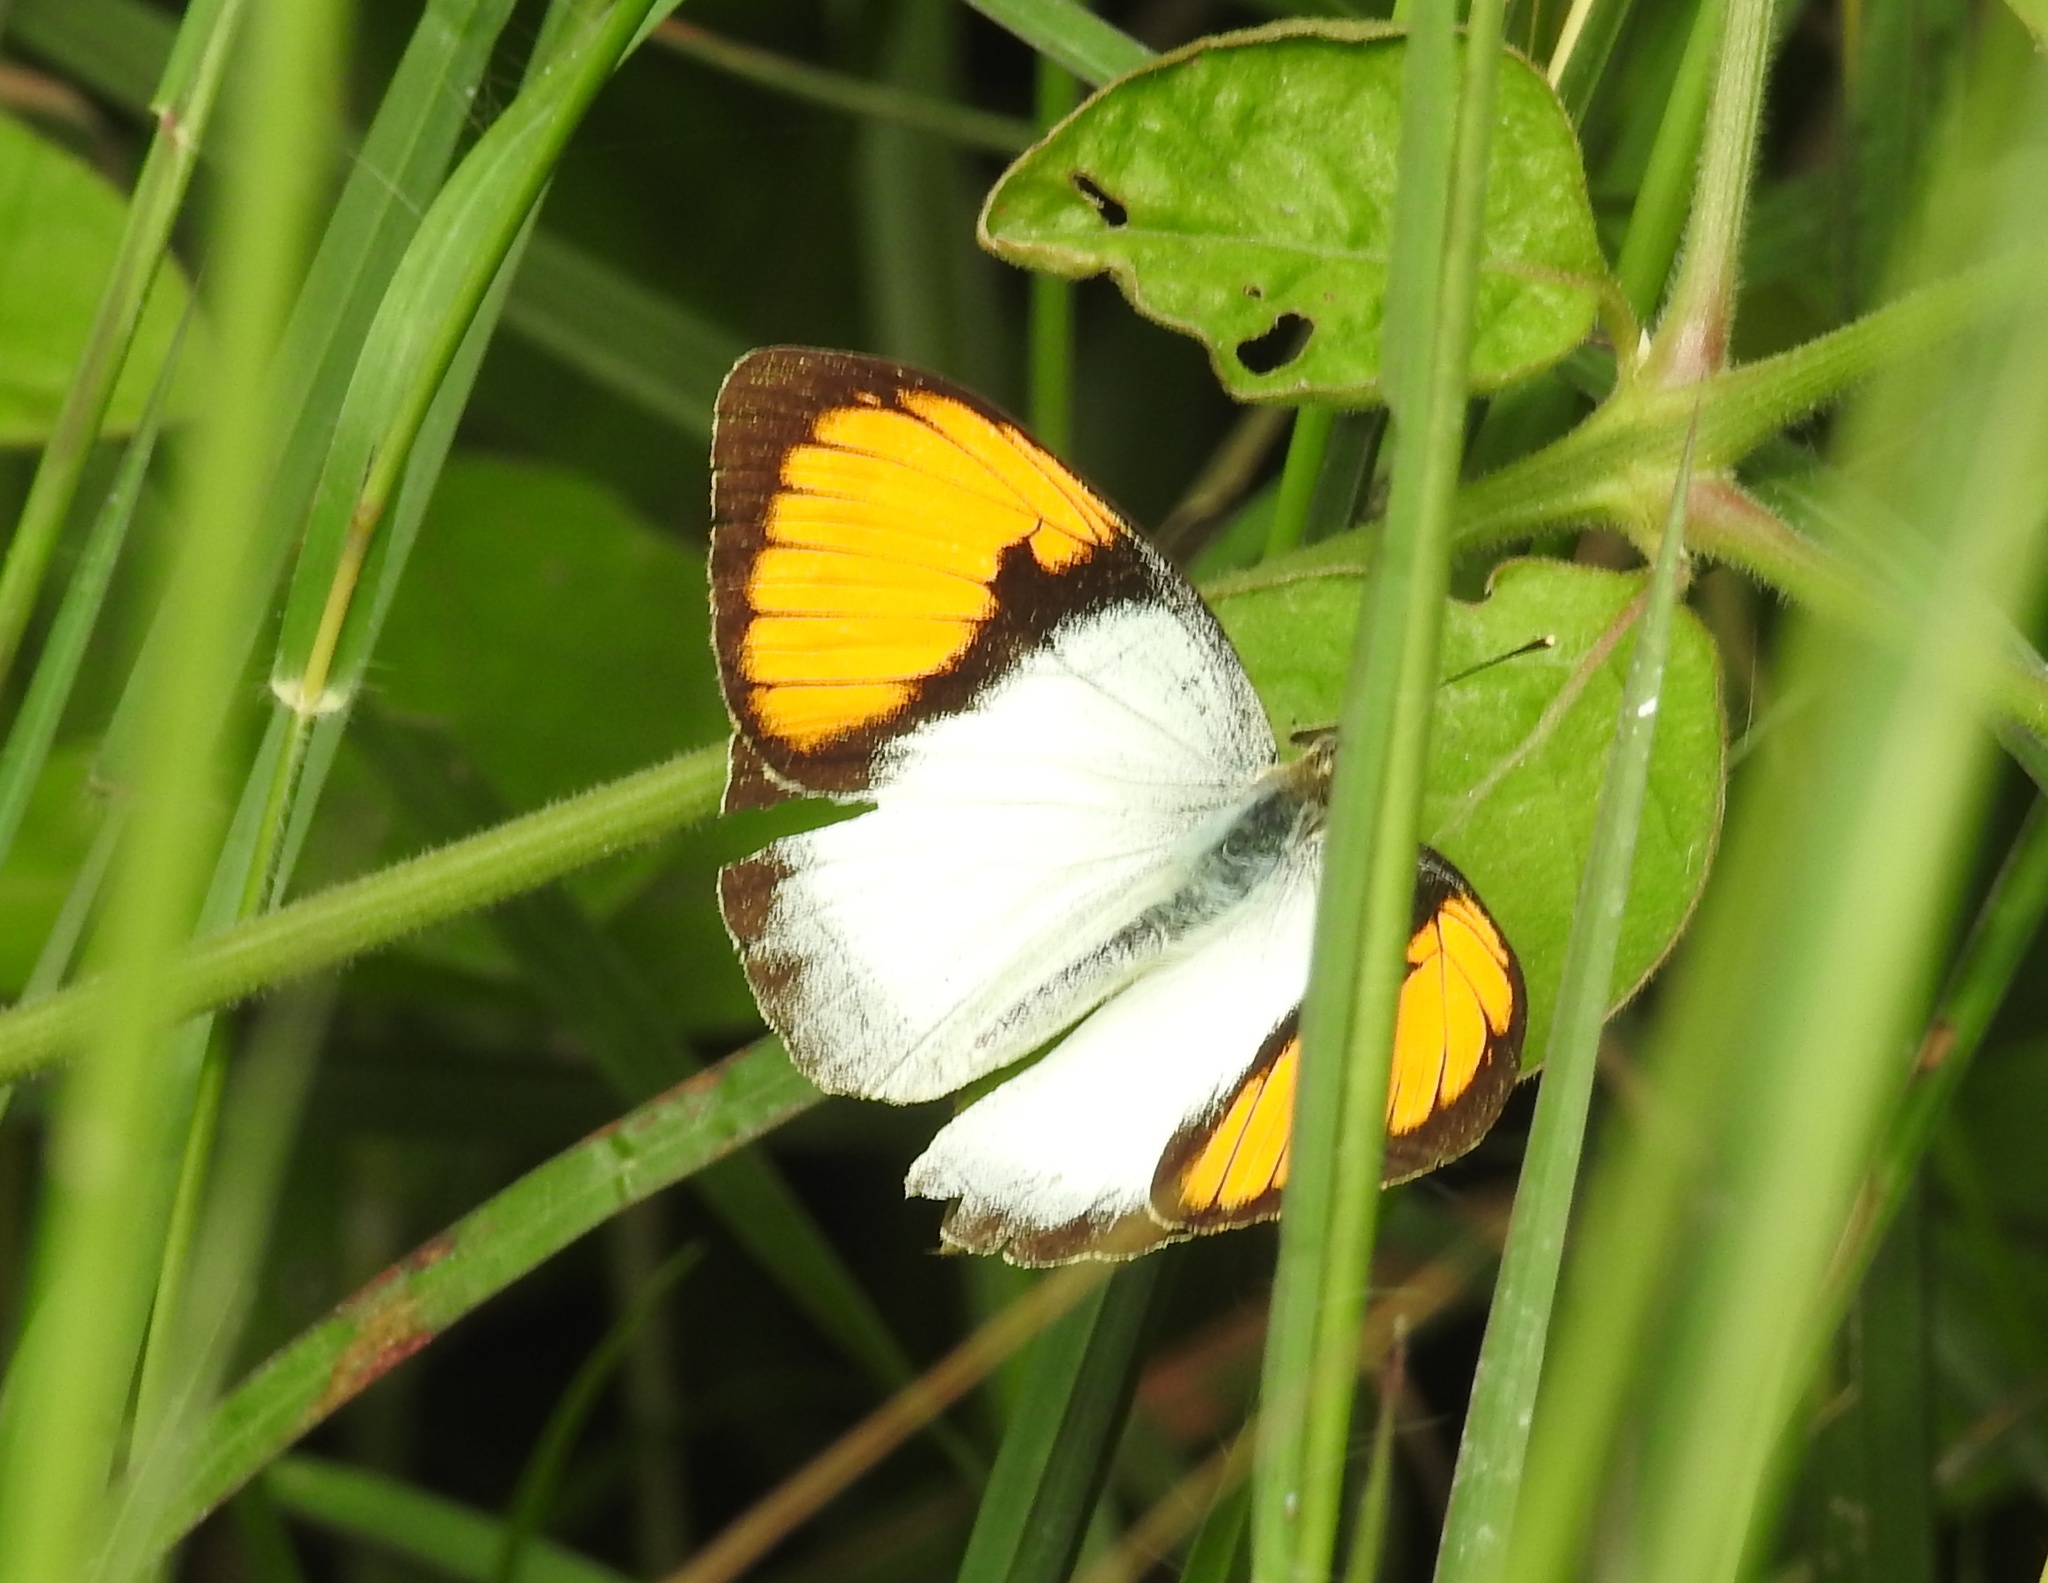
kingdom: Animalia
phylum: Arthropoda
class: Insecta
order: Lepidoptera
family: Pieridae
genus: Ixias
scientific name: Ixias marianne
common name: White orange tip
